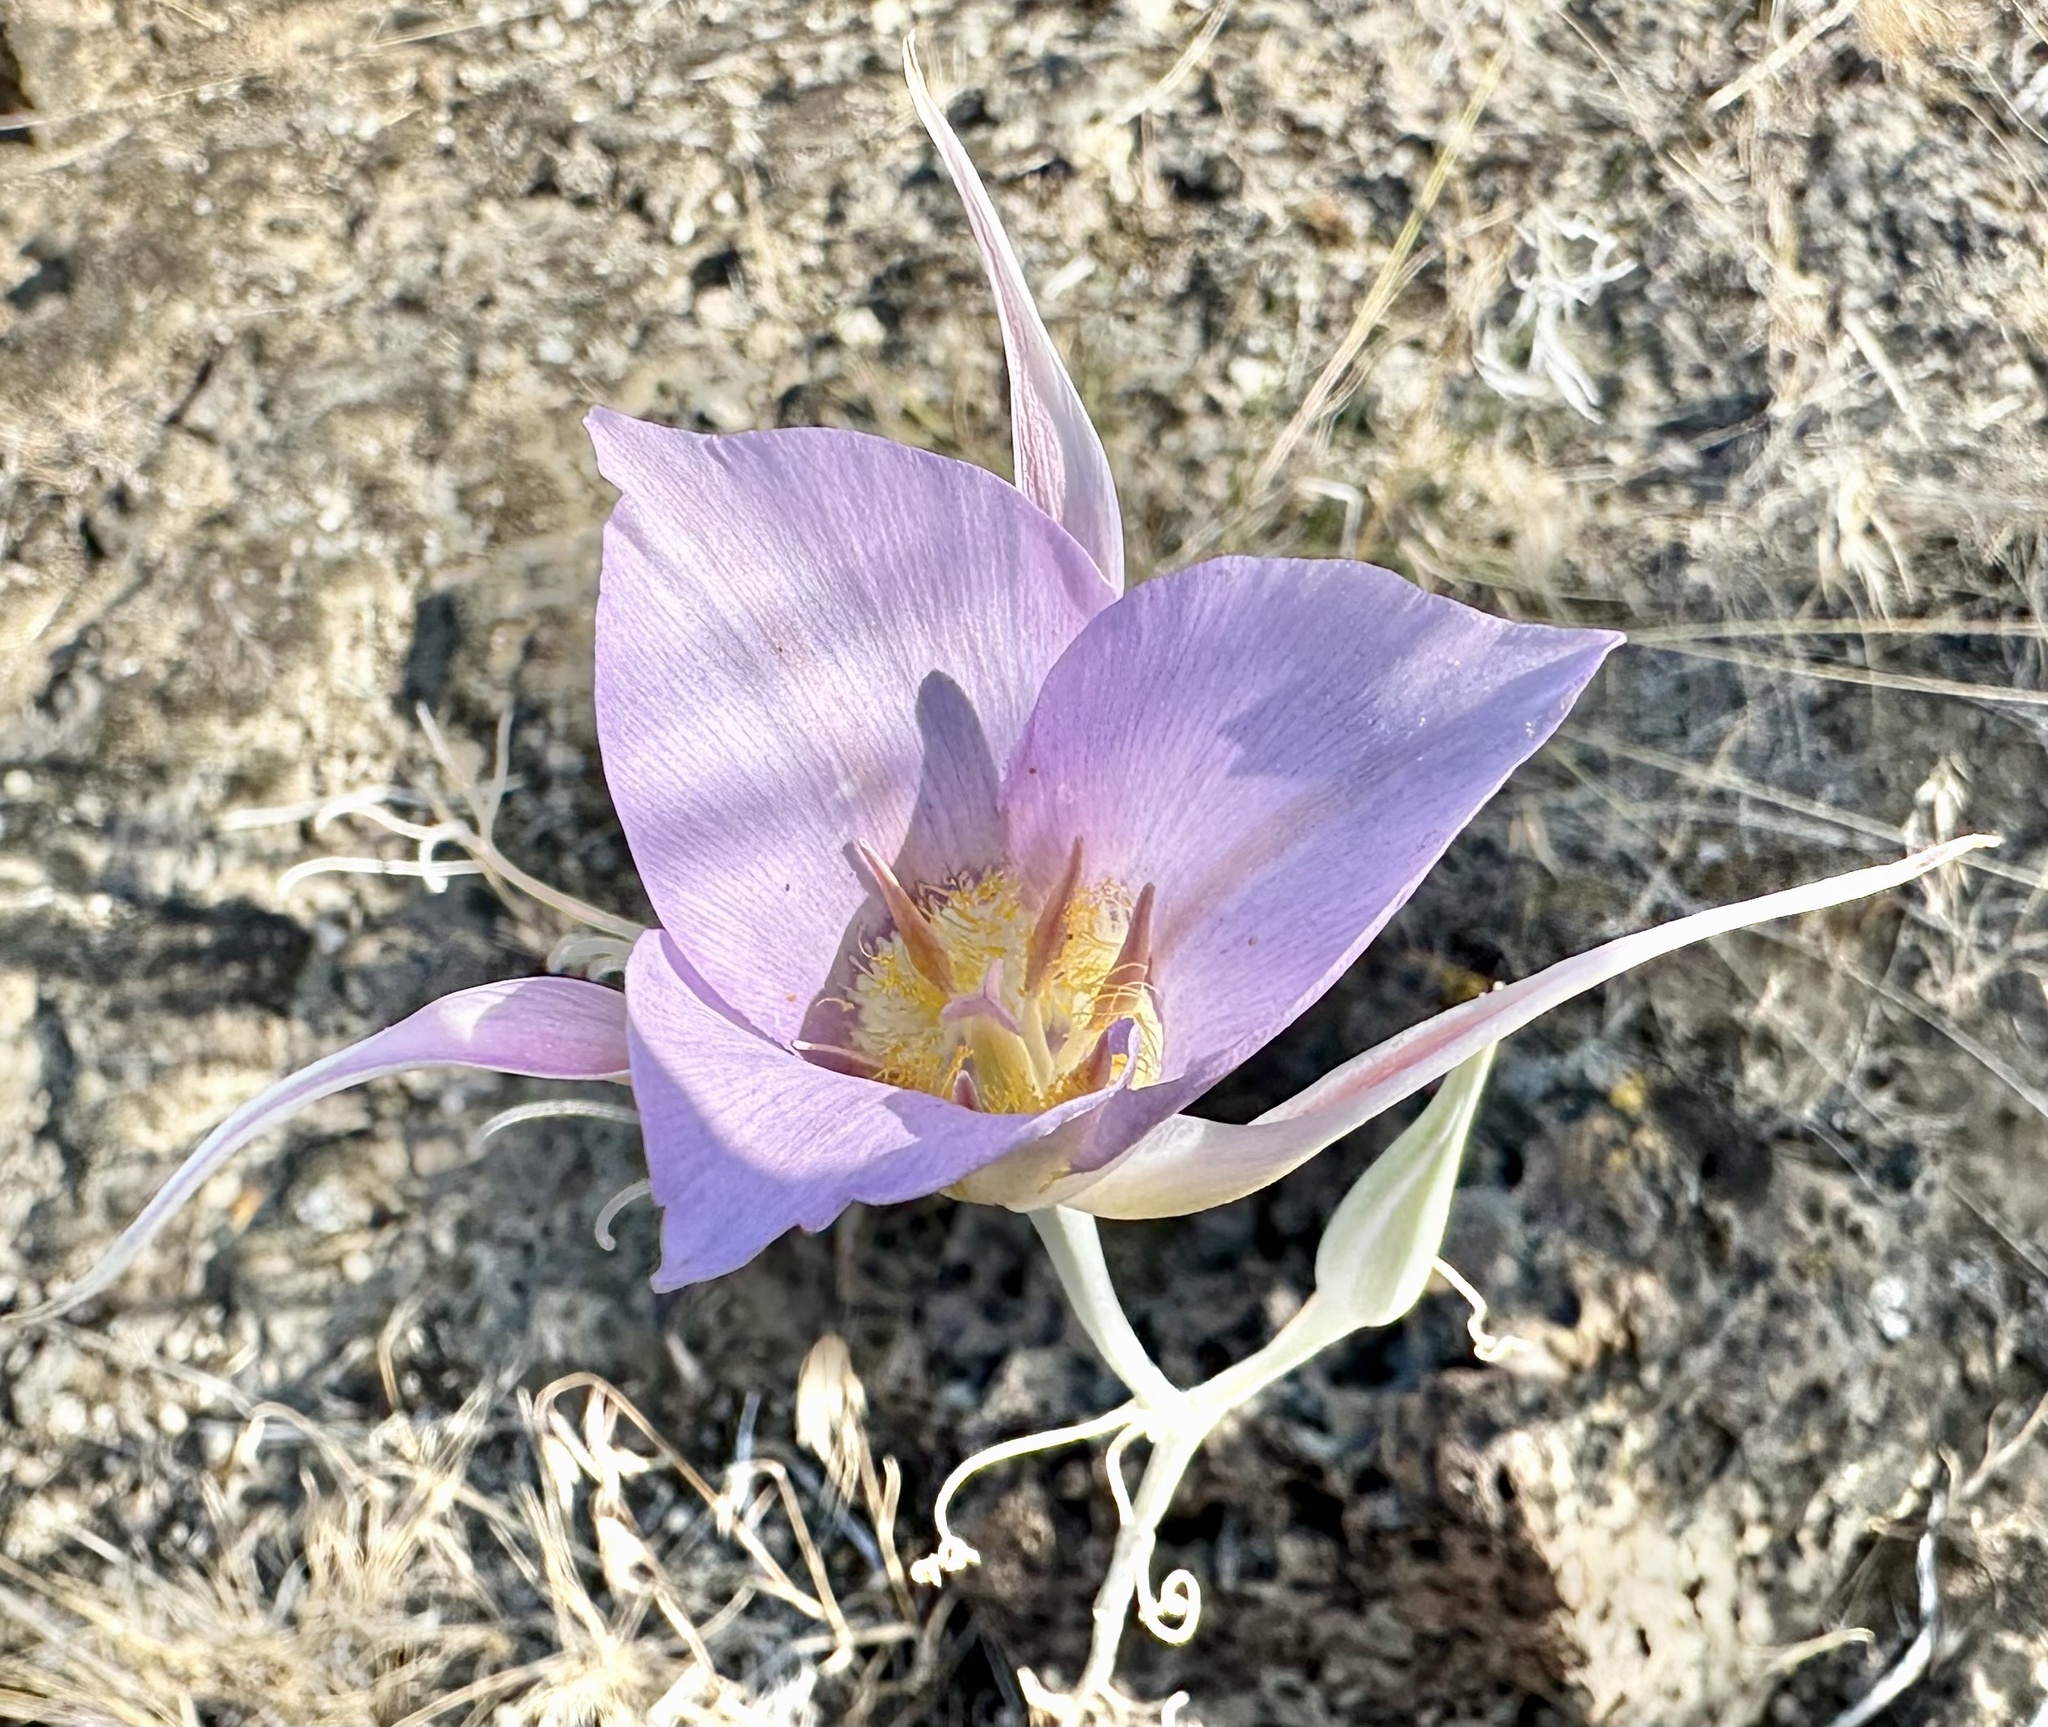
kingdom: Plantae
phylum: Tracheophyta
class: Liliopsida
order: Liliales
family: Liliaceae
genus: Calochortus
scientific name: Calochortus macrocarpus
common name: Green-band mariposa lily
